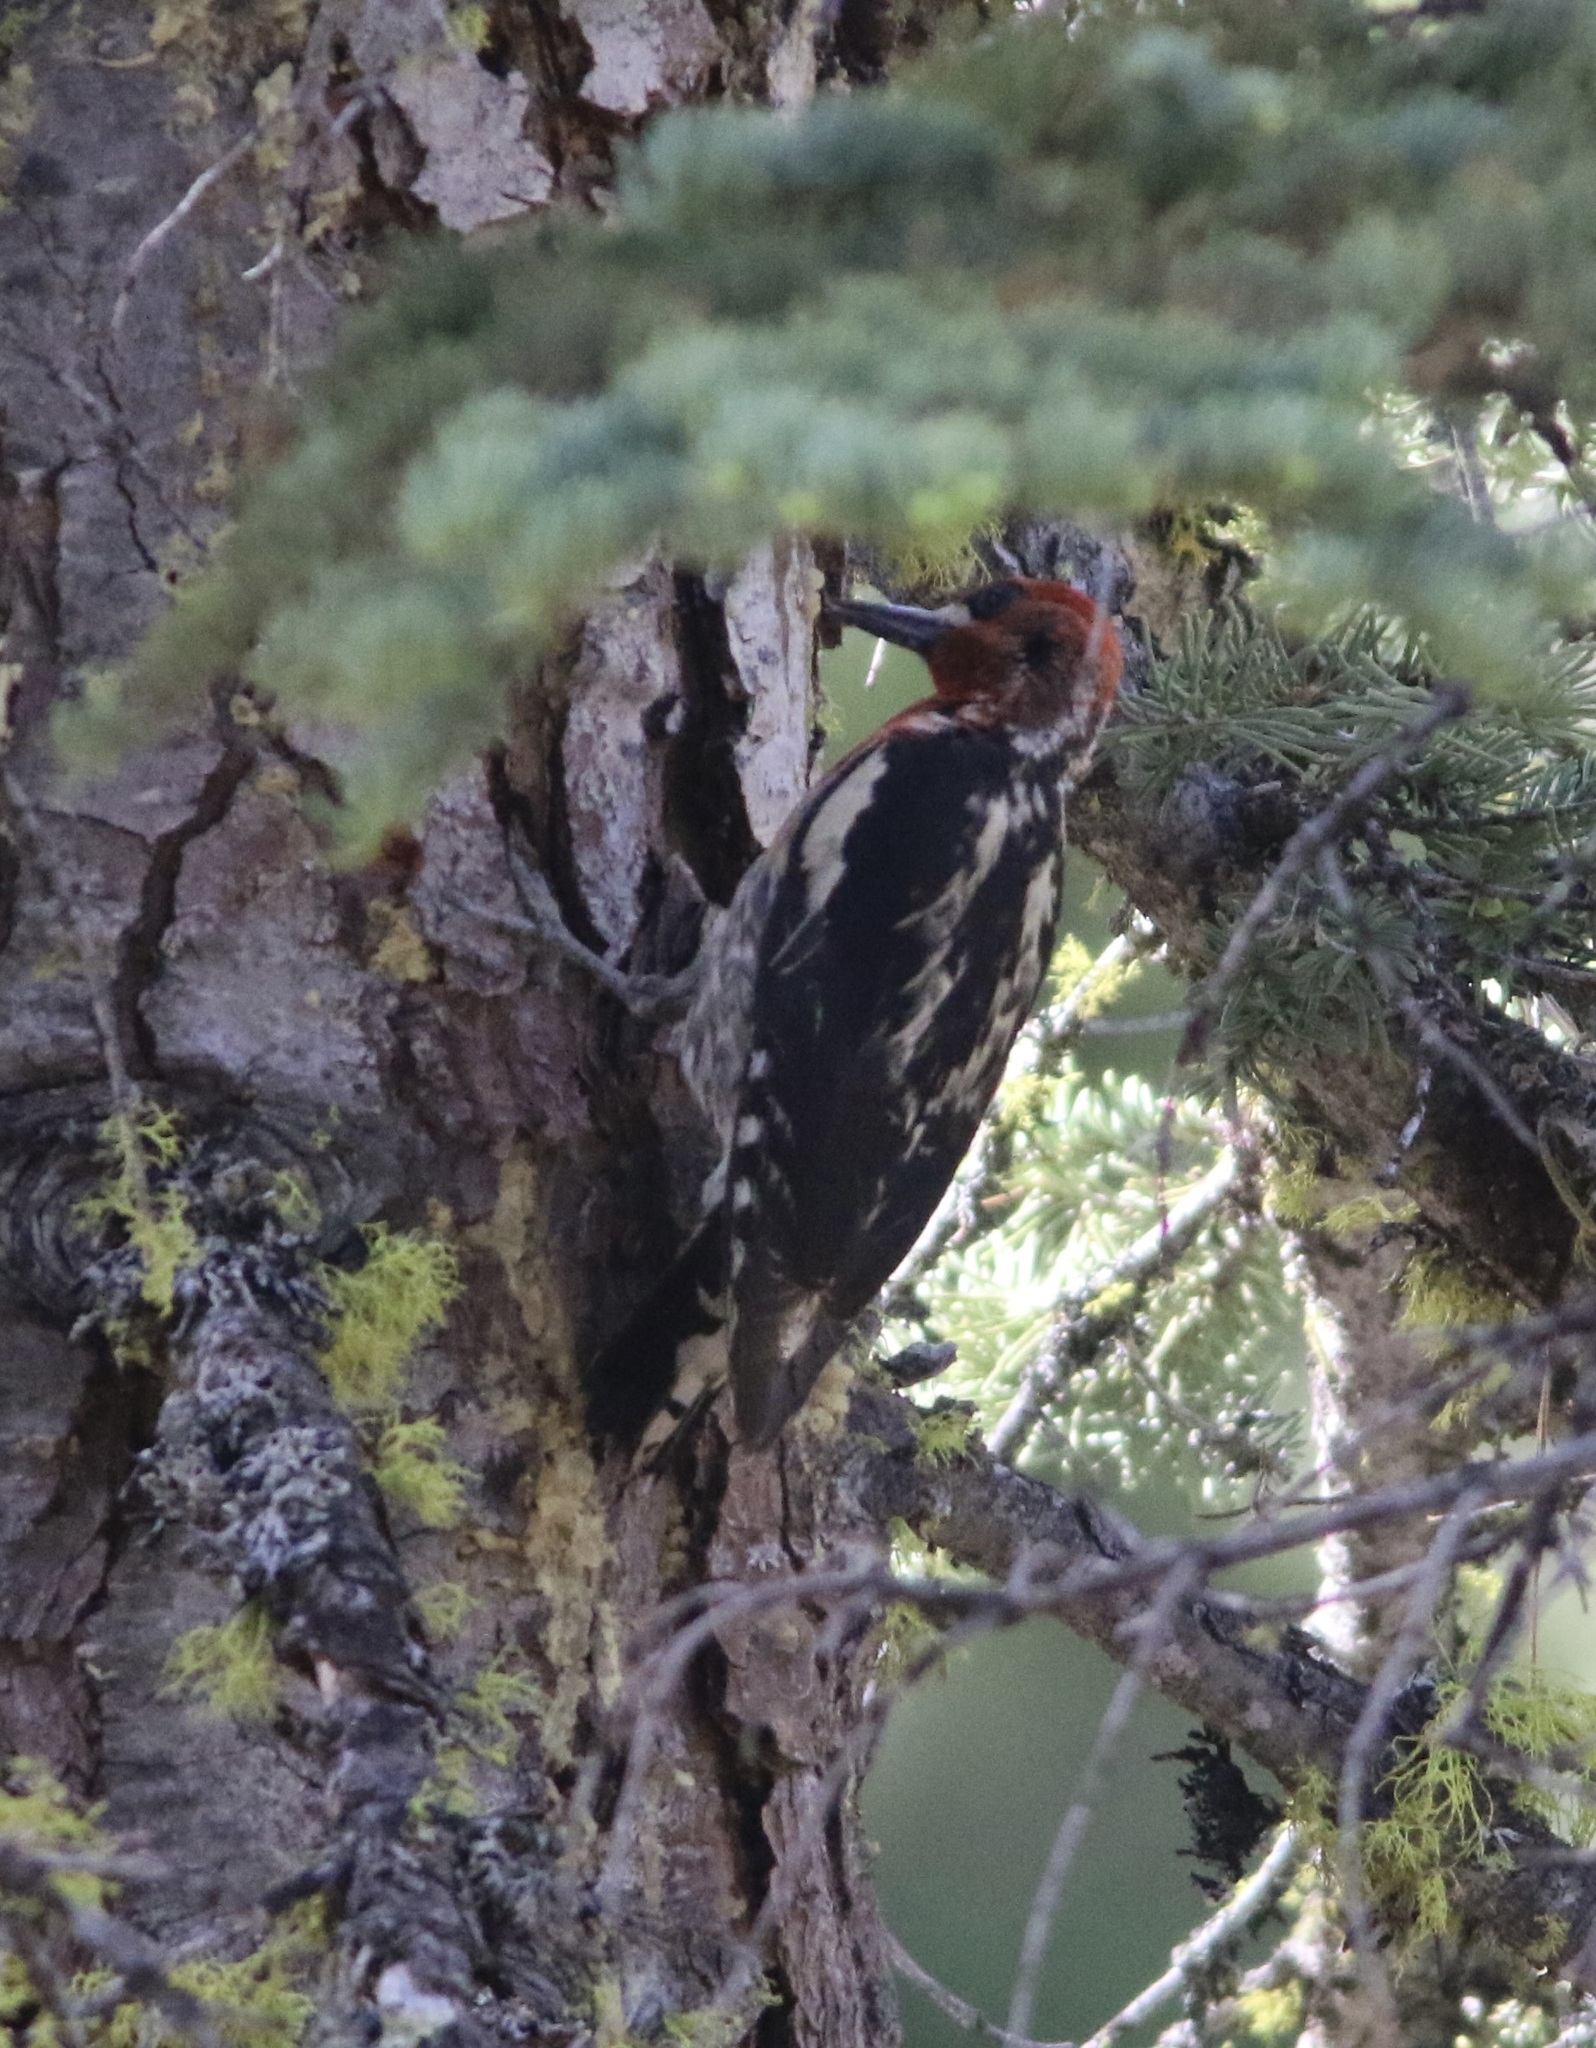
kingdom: Animalia
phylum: Chordata
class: Aves
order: Piciformes
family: Picidae
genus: Sphyrapicus
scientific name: Sphyrapicus ruber
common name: Red-breasted sapsucker
